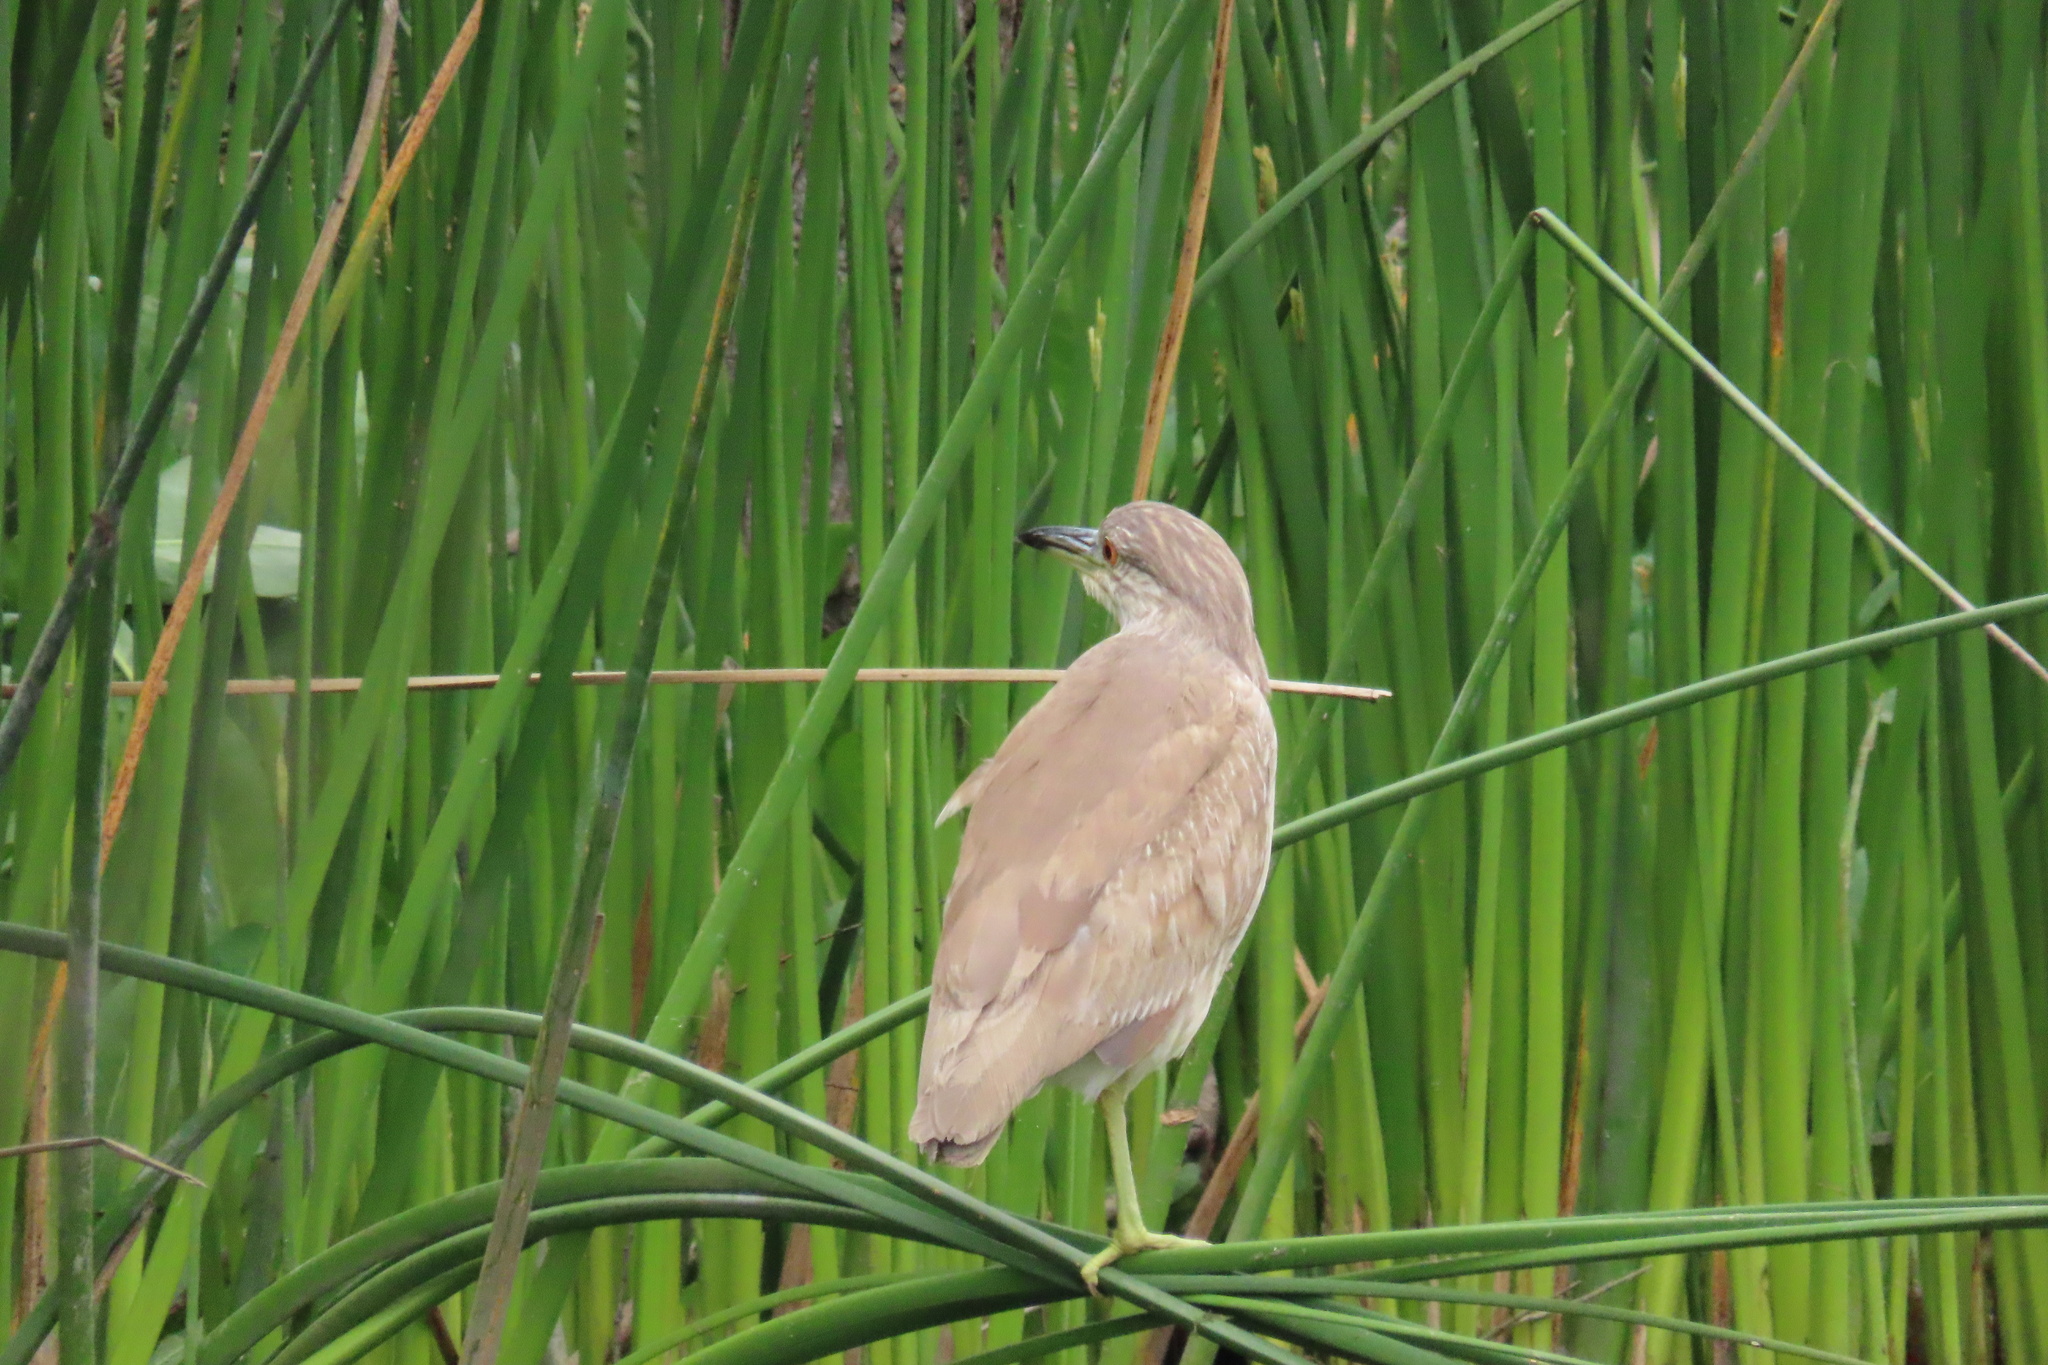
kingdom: Animalia
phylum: Chordata
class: Aves
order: Pelecaniformes
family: Ardeidae
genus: Nycticorax
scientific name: Nycticorax nycticorax
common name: Black-crowned night heron
